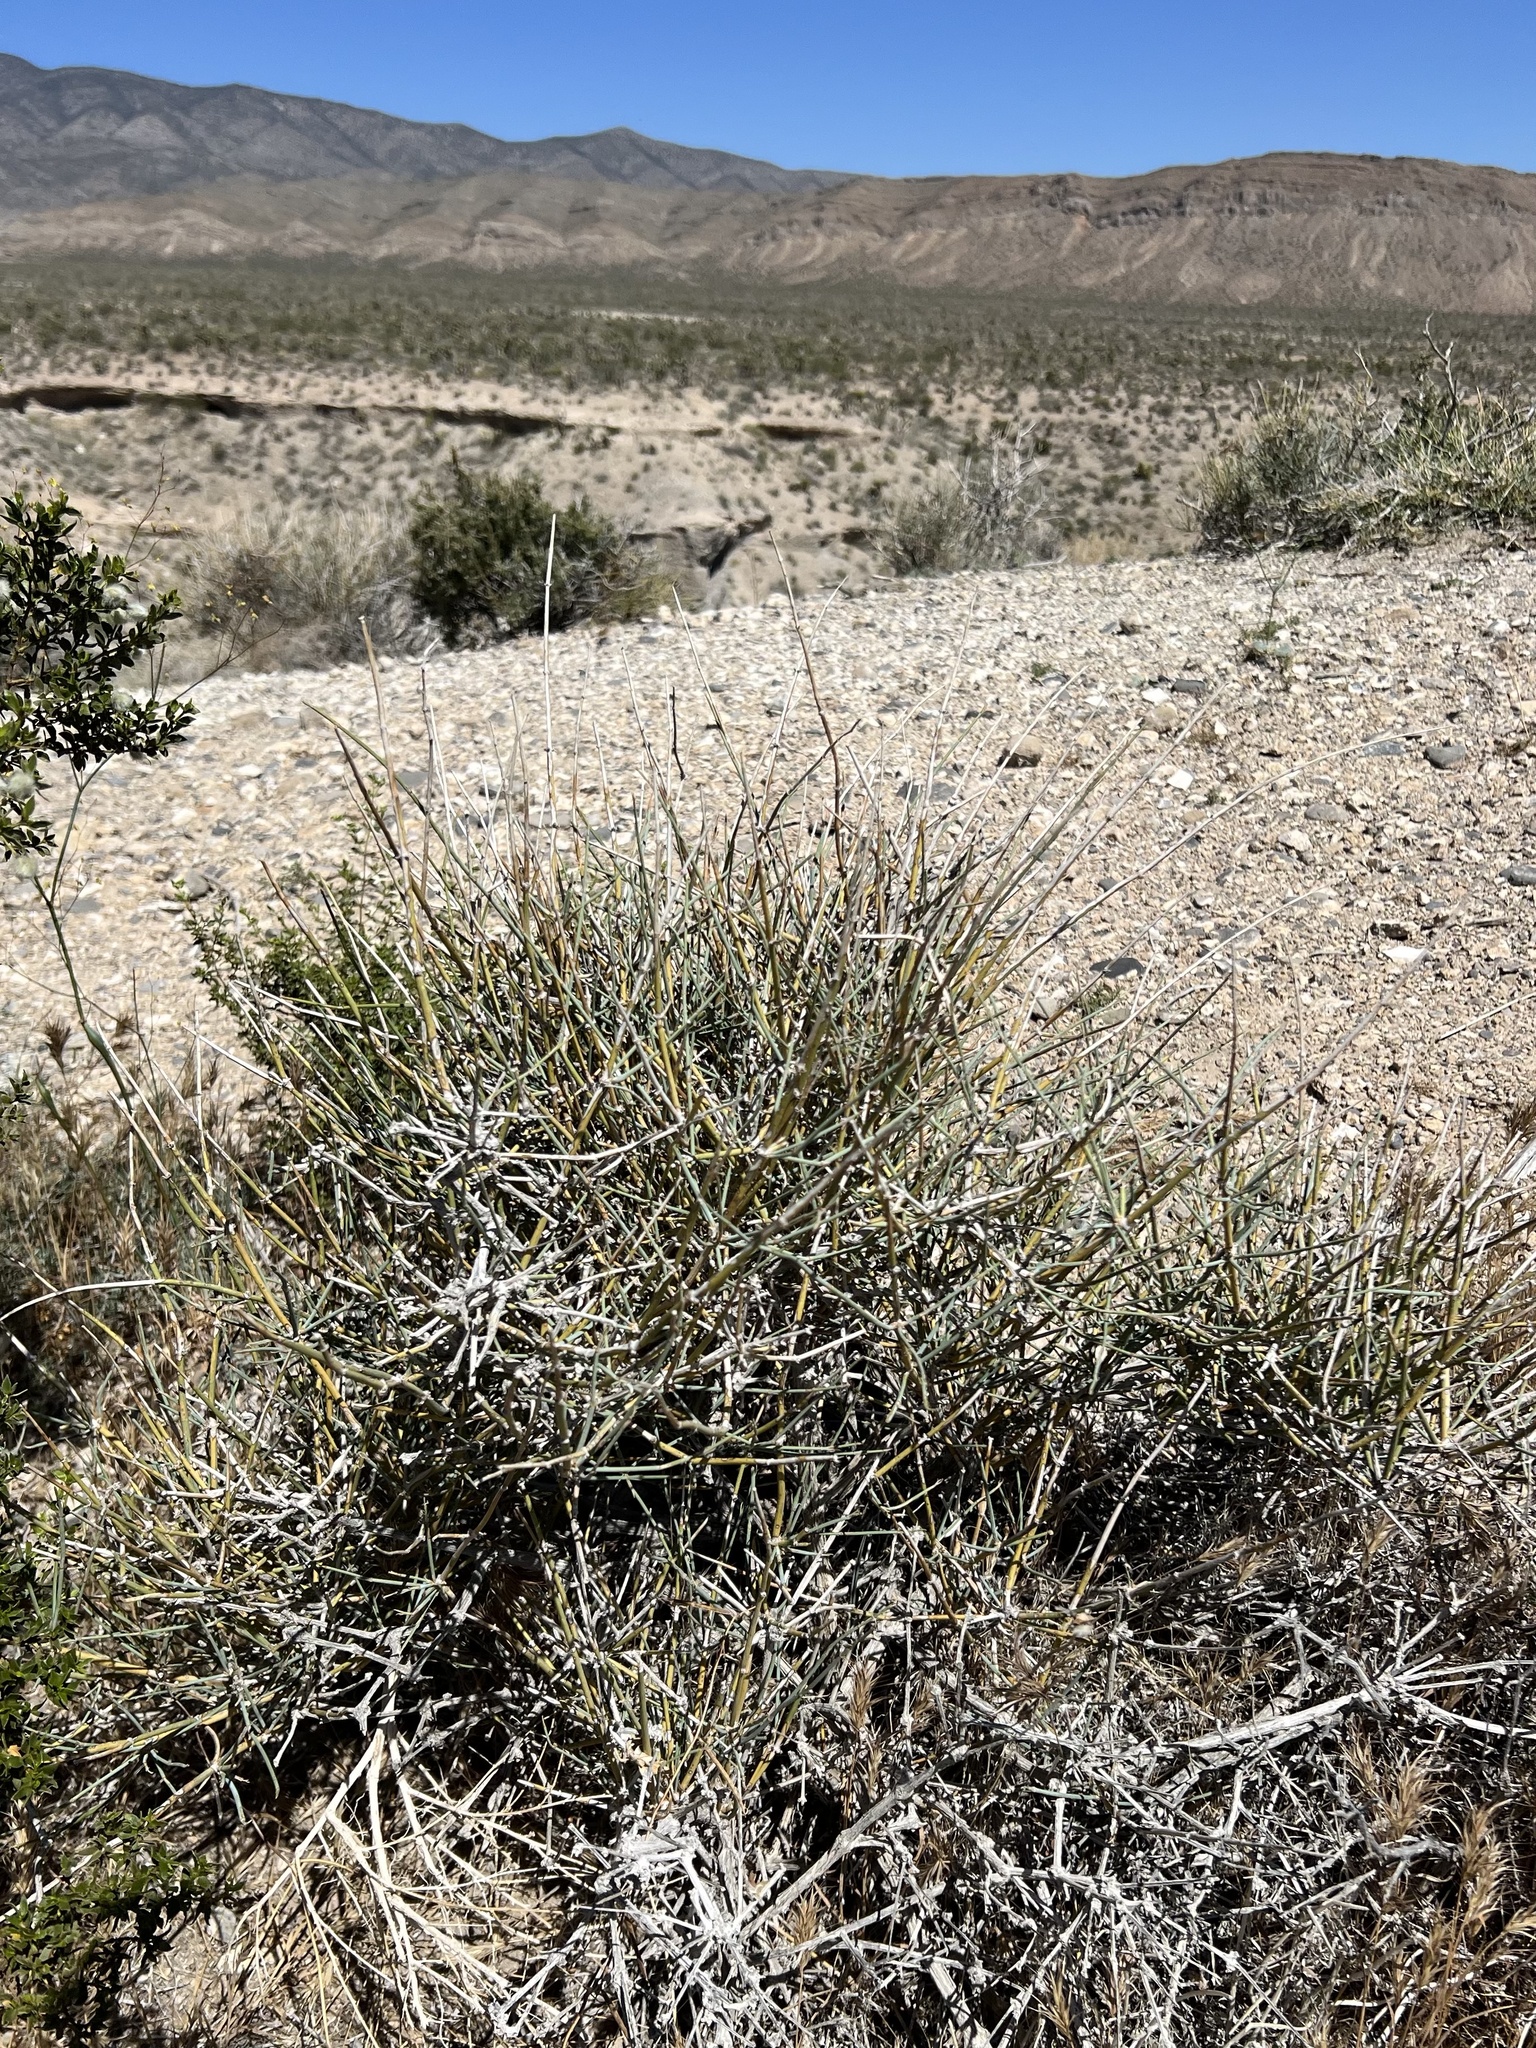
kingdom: Plantae
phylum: Tracheophyta
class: Gnetopsida
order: Ephedrales
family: Ephedraceae
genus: Ephedra
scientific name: Ephedra nevadensis
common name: Gray ephedra
